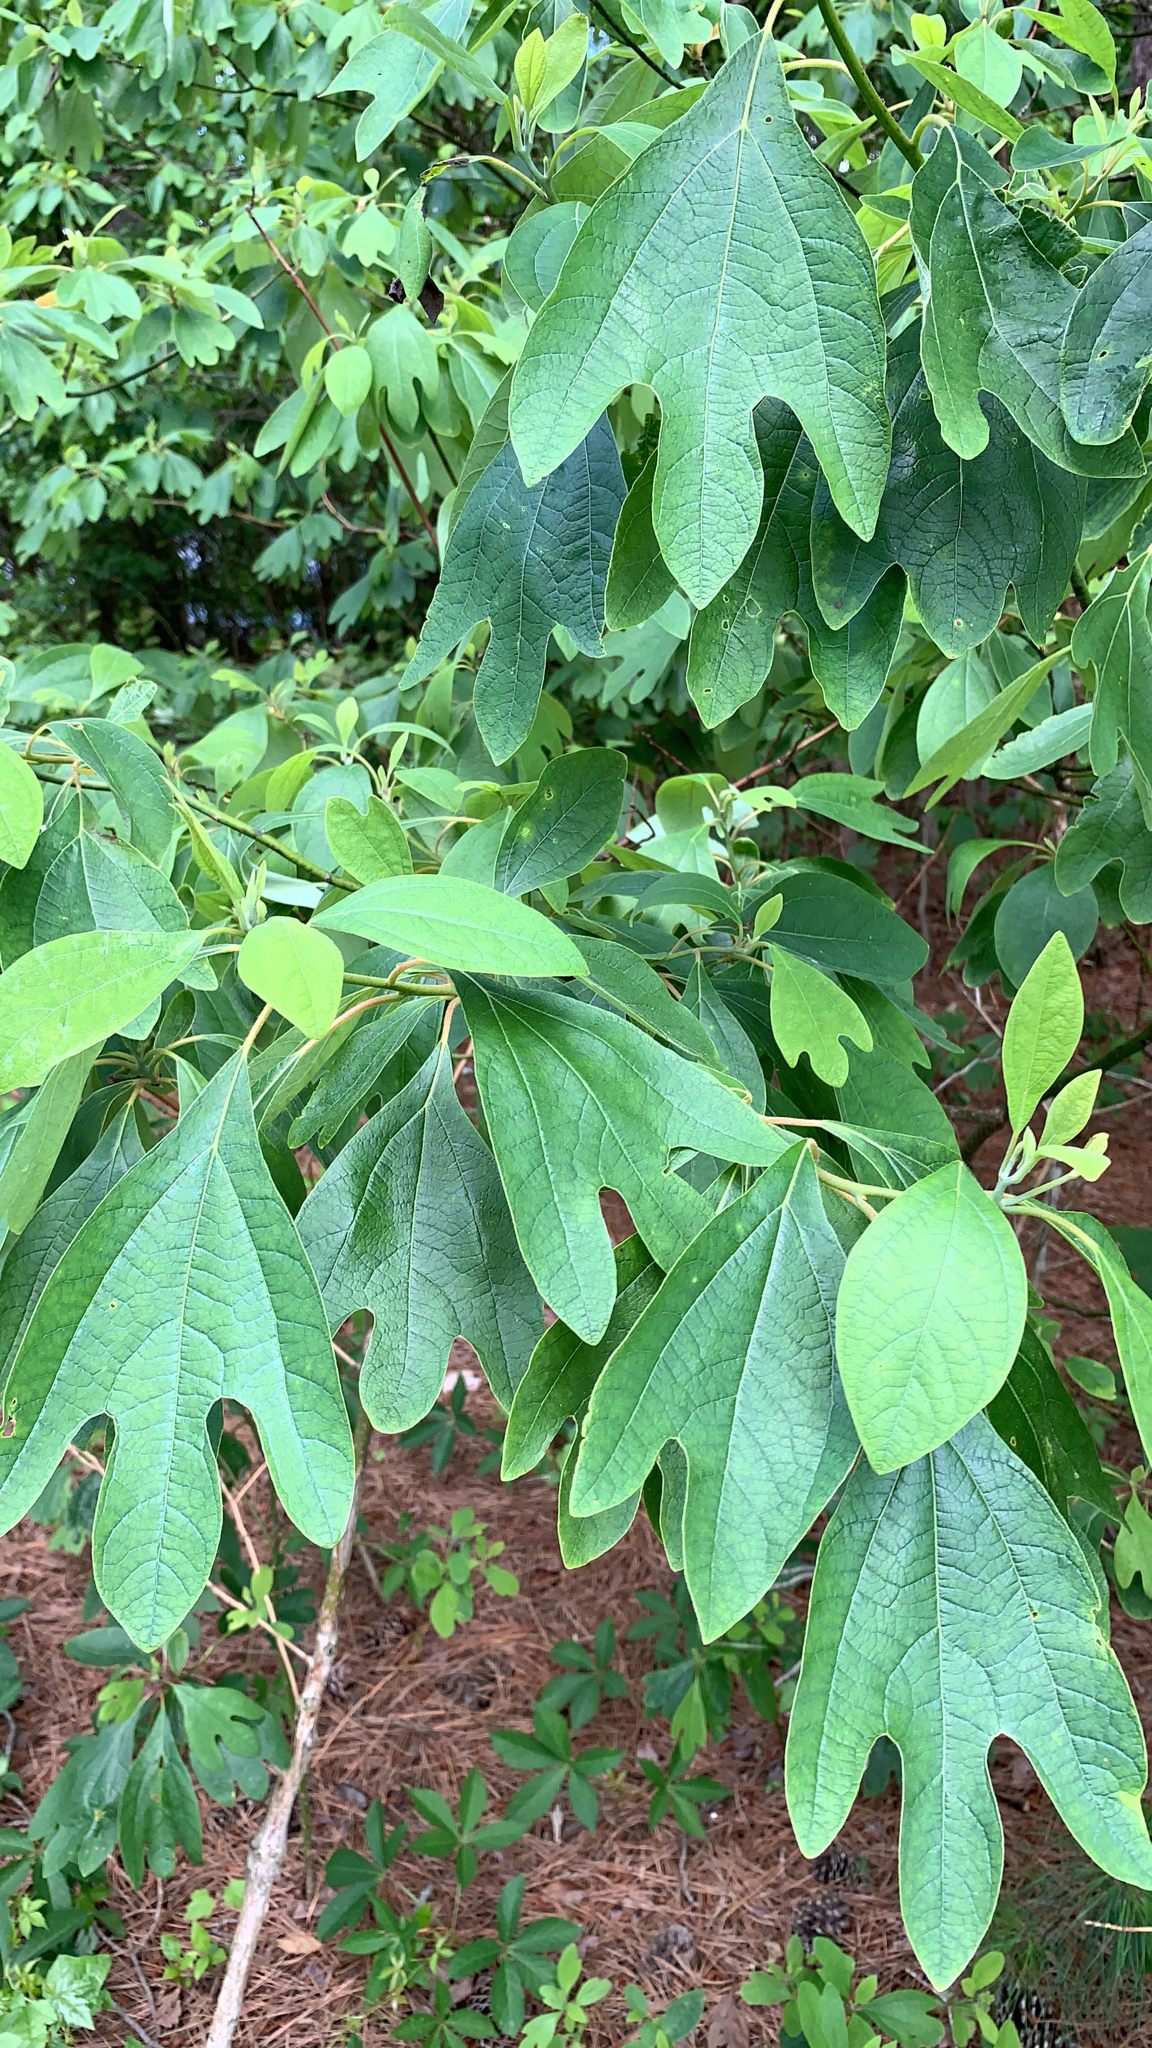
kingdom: Plantae
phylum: Tracheophyta
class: Magnoliopsida
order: Laurales
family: Lauraceae
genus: Sassafras
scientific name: Sassafras albidum
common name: Sassafras
